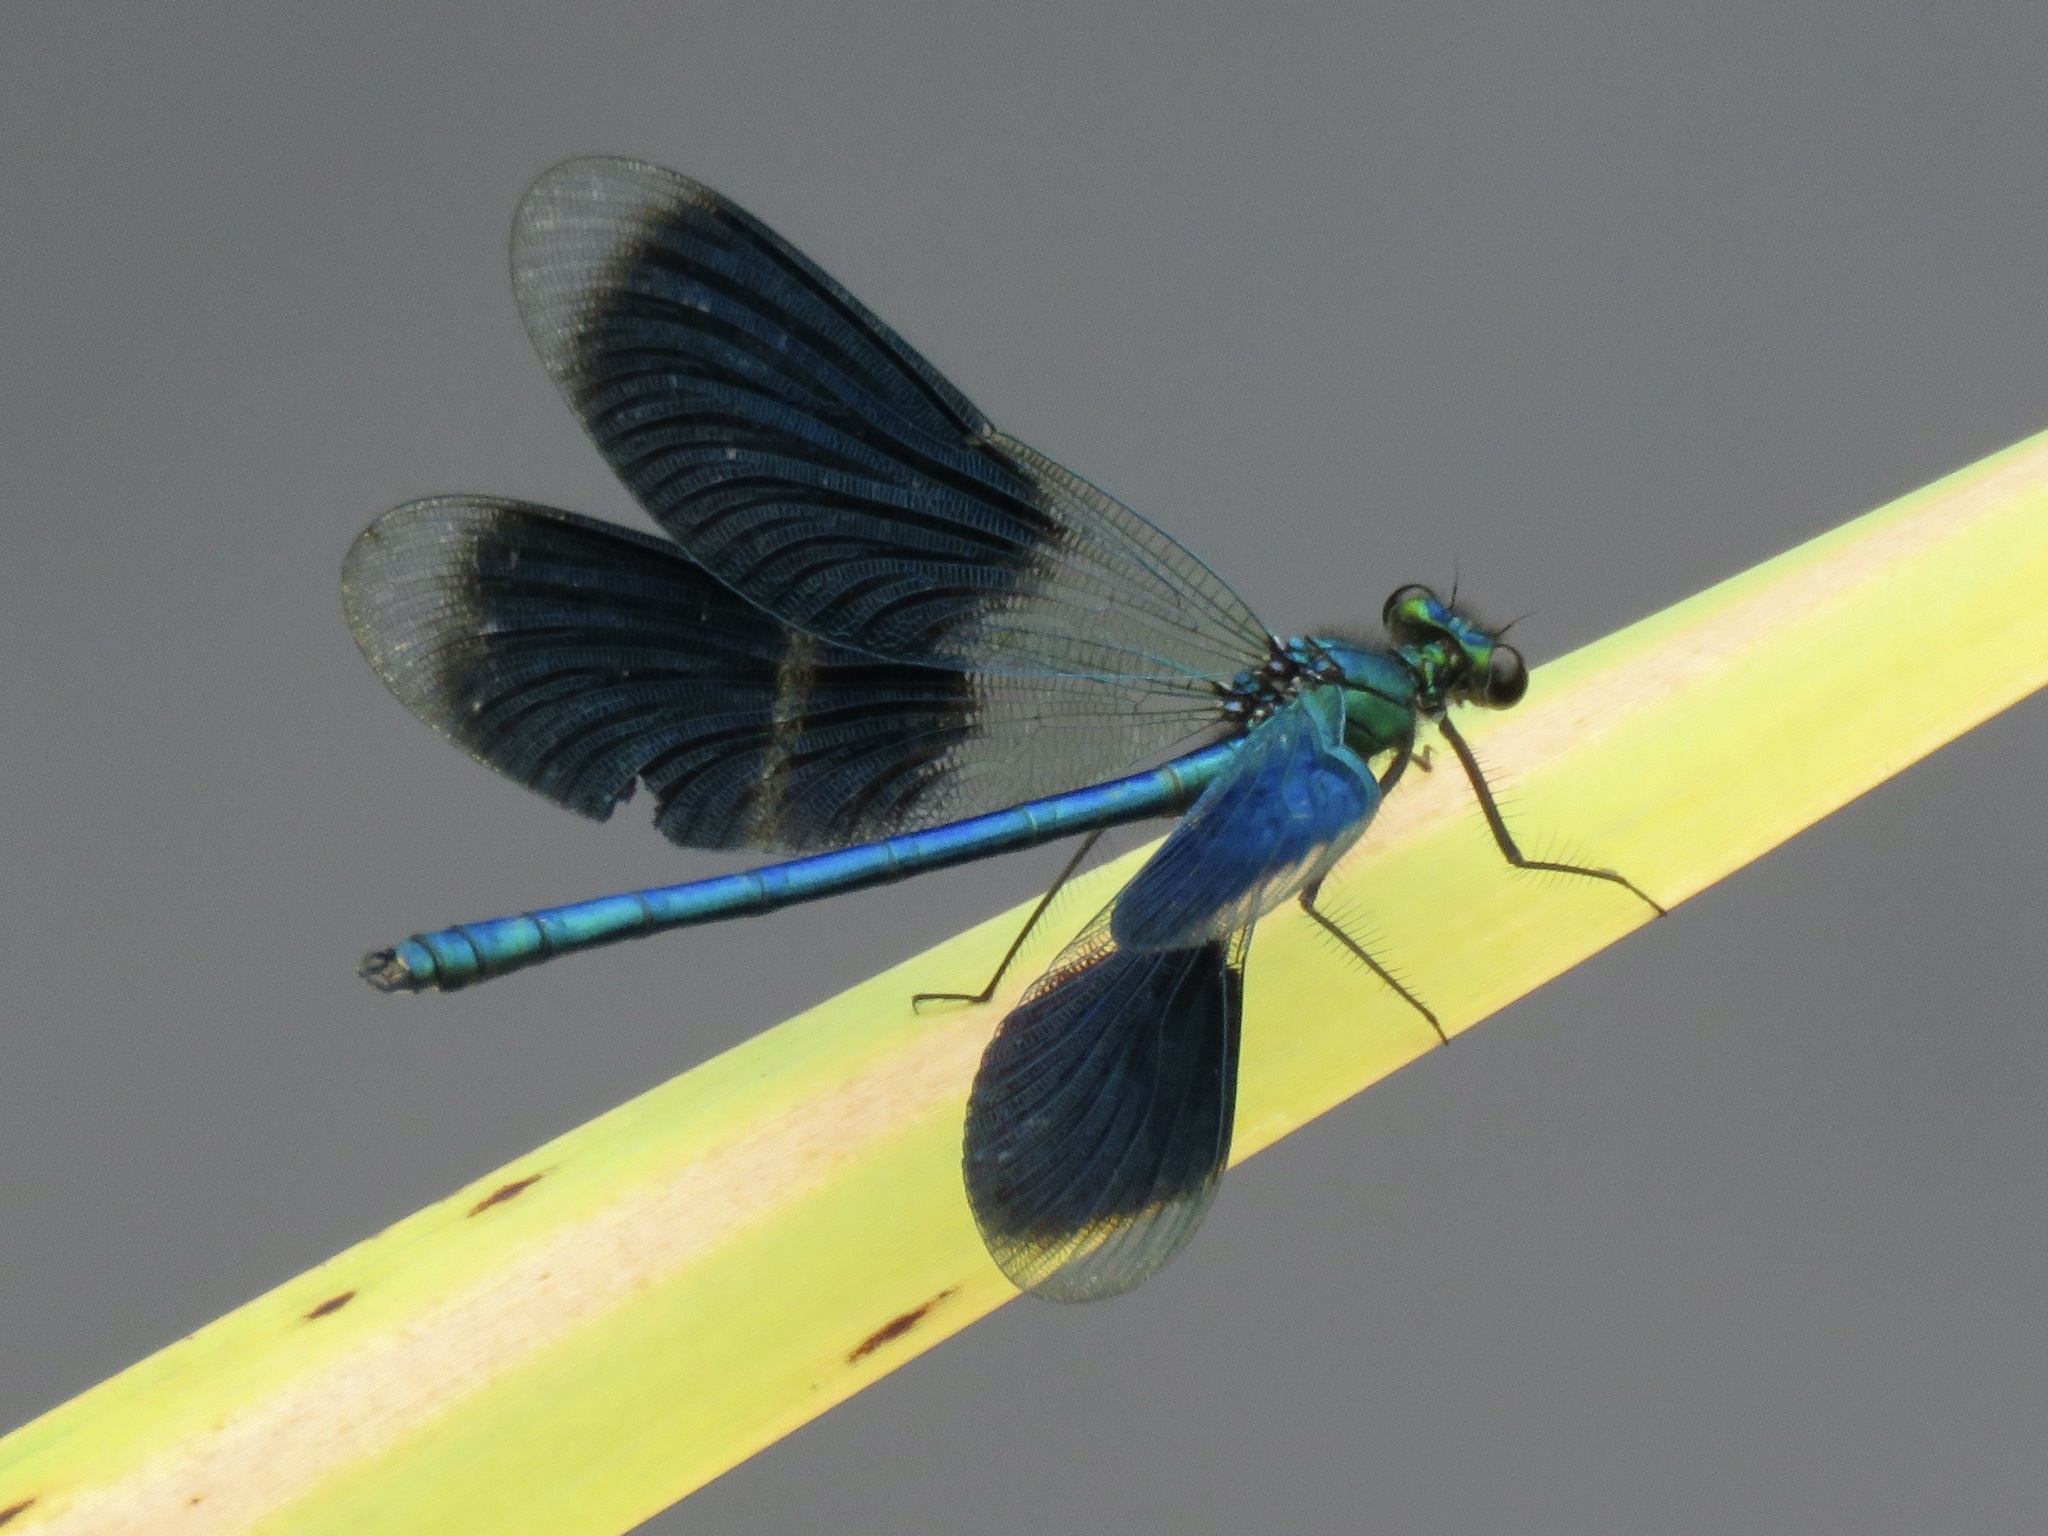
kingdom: Animalia
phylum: Arthropoda
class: Insecta
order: Odonata
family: Calopterygidae
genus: Calopteryx
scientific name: Calopteryx splendens
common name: Banded demoiselle
